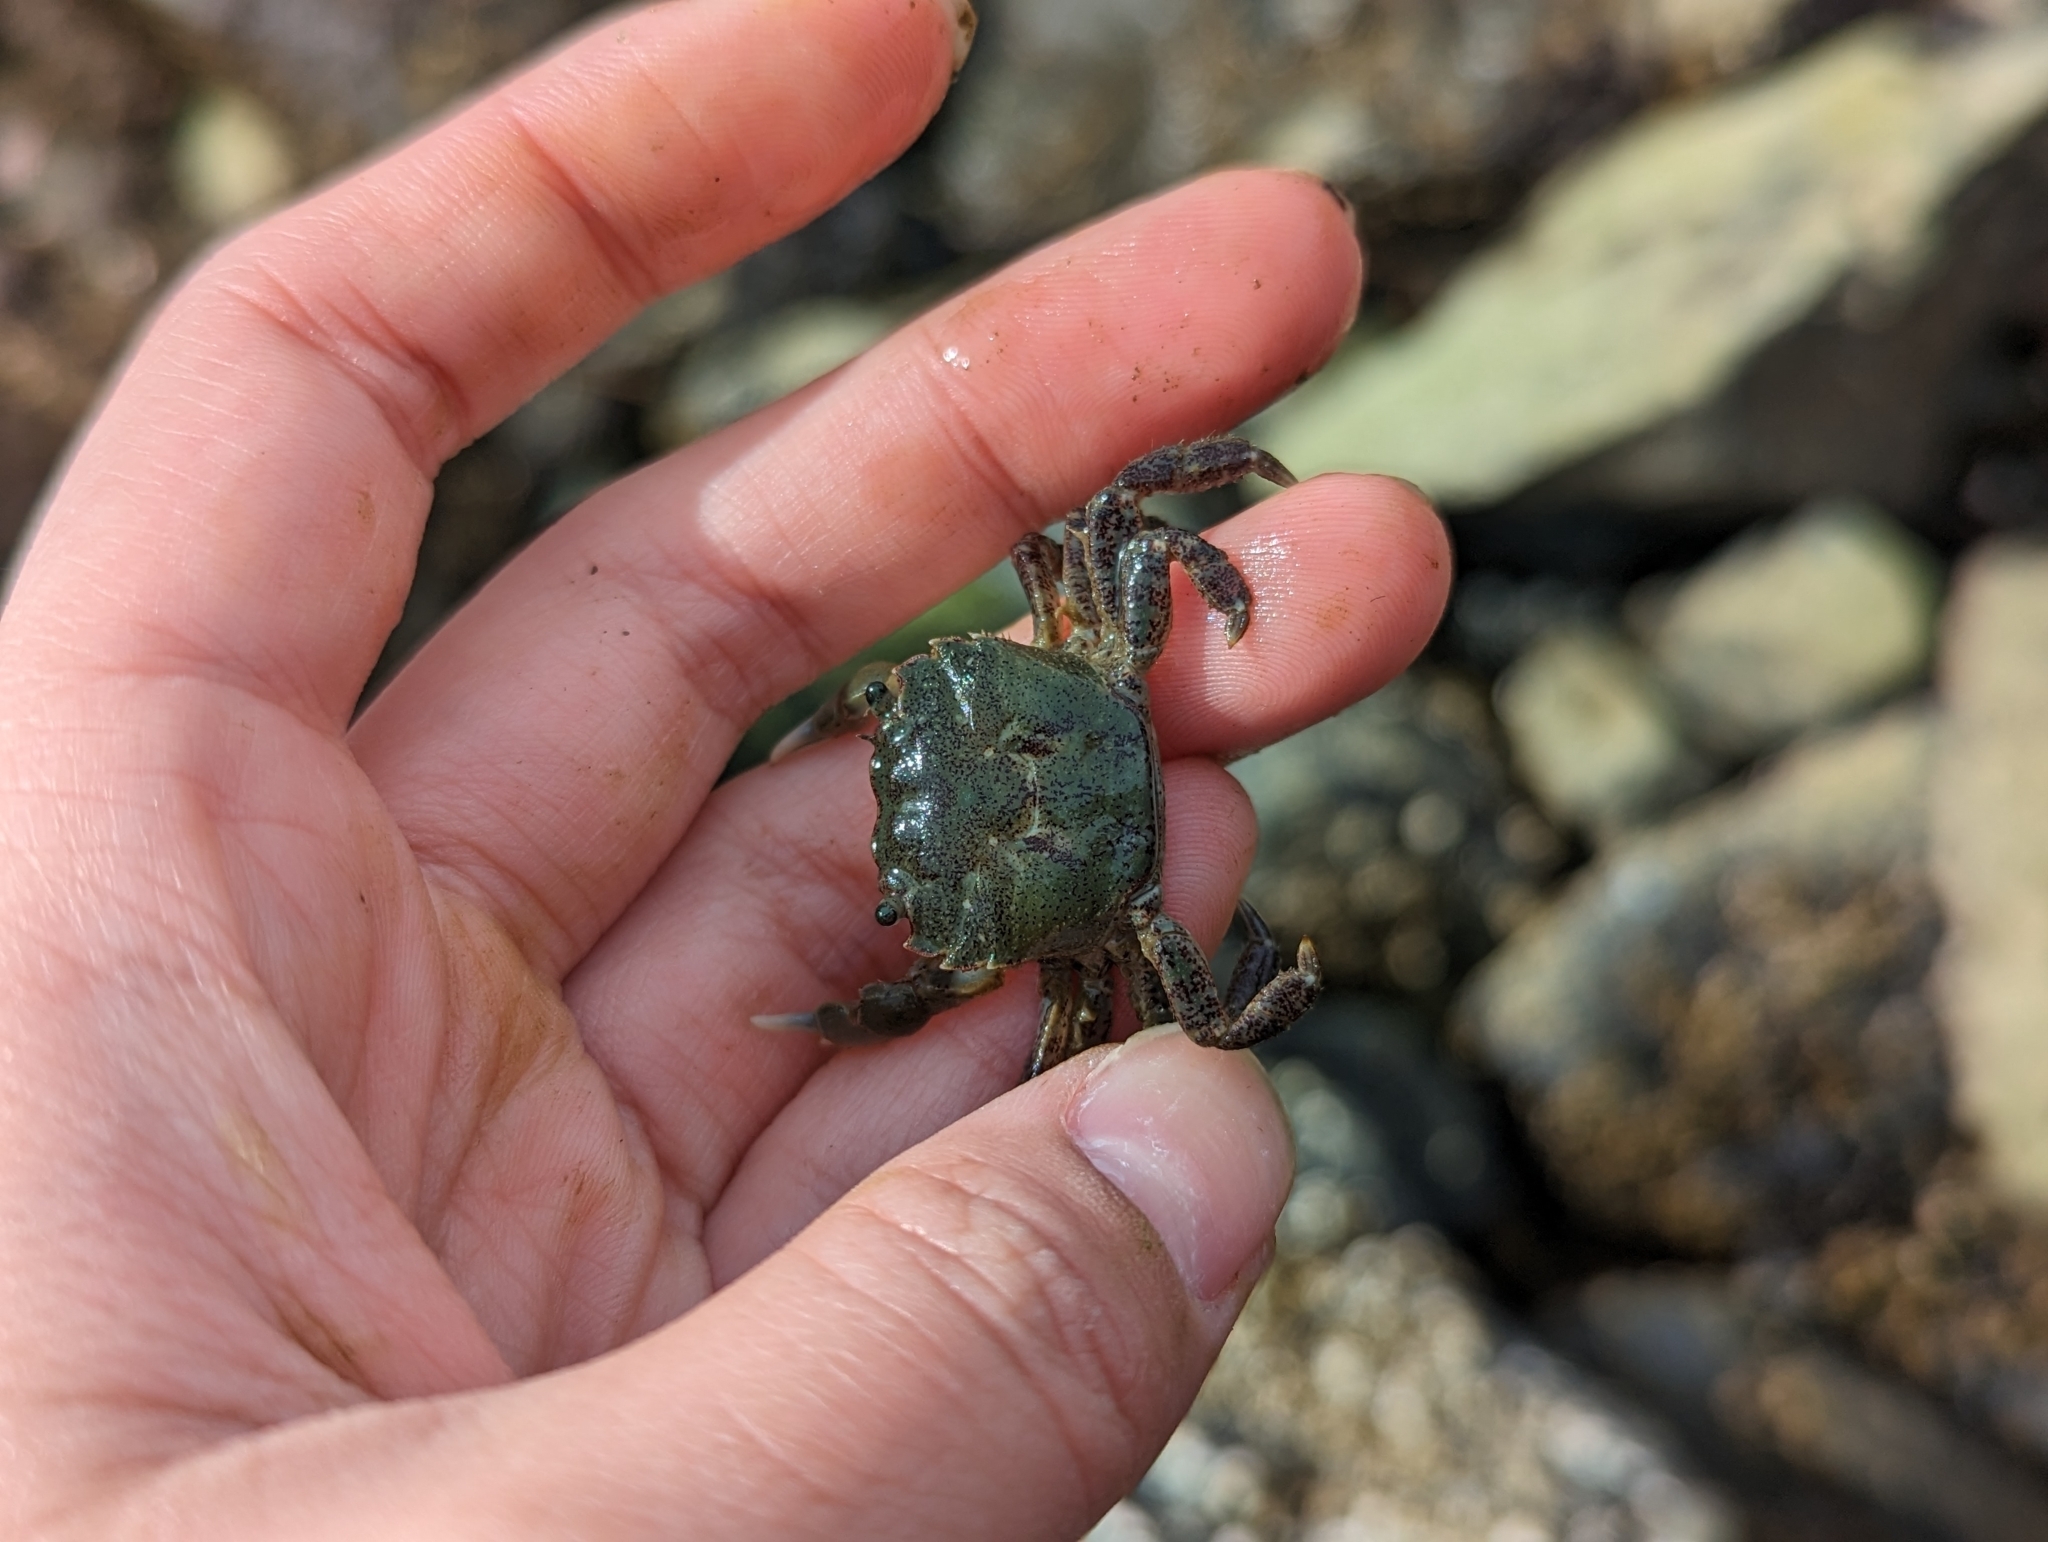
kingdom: Animalia
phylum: Arthropoda
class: Malacostraca
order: Decapoda
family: Varunidae
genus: Hemigrapsus
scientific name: Hemigrapsus oregonensis
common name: Yellow shore crab
